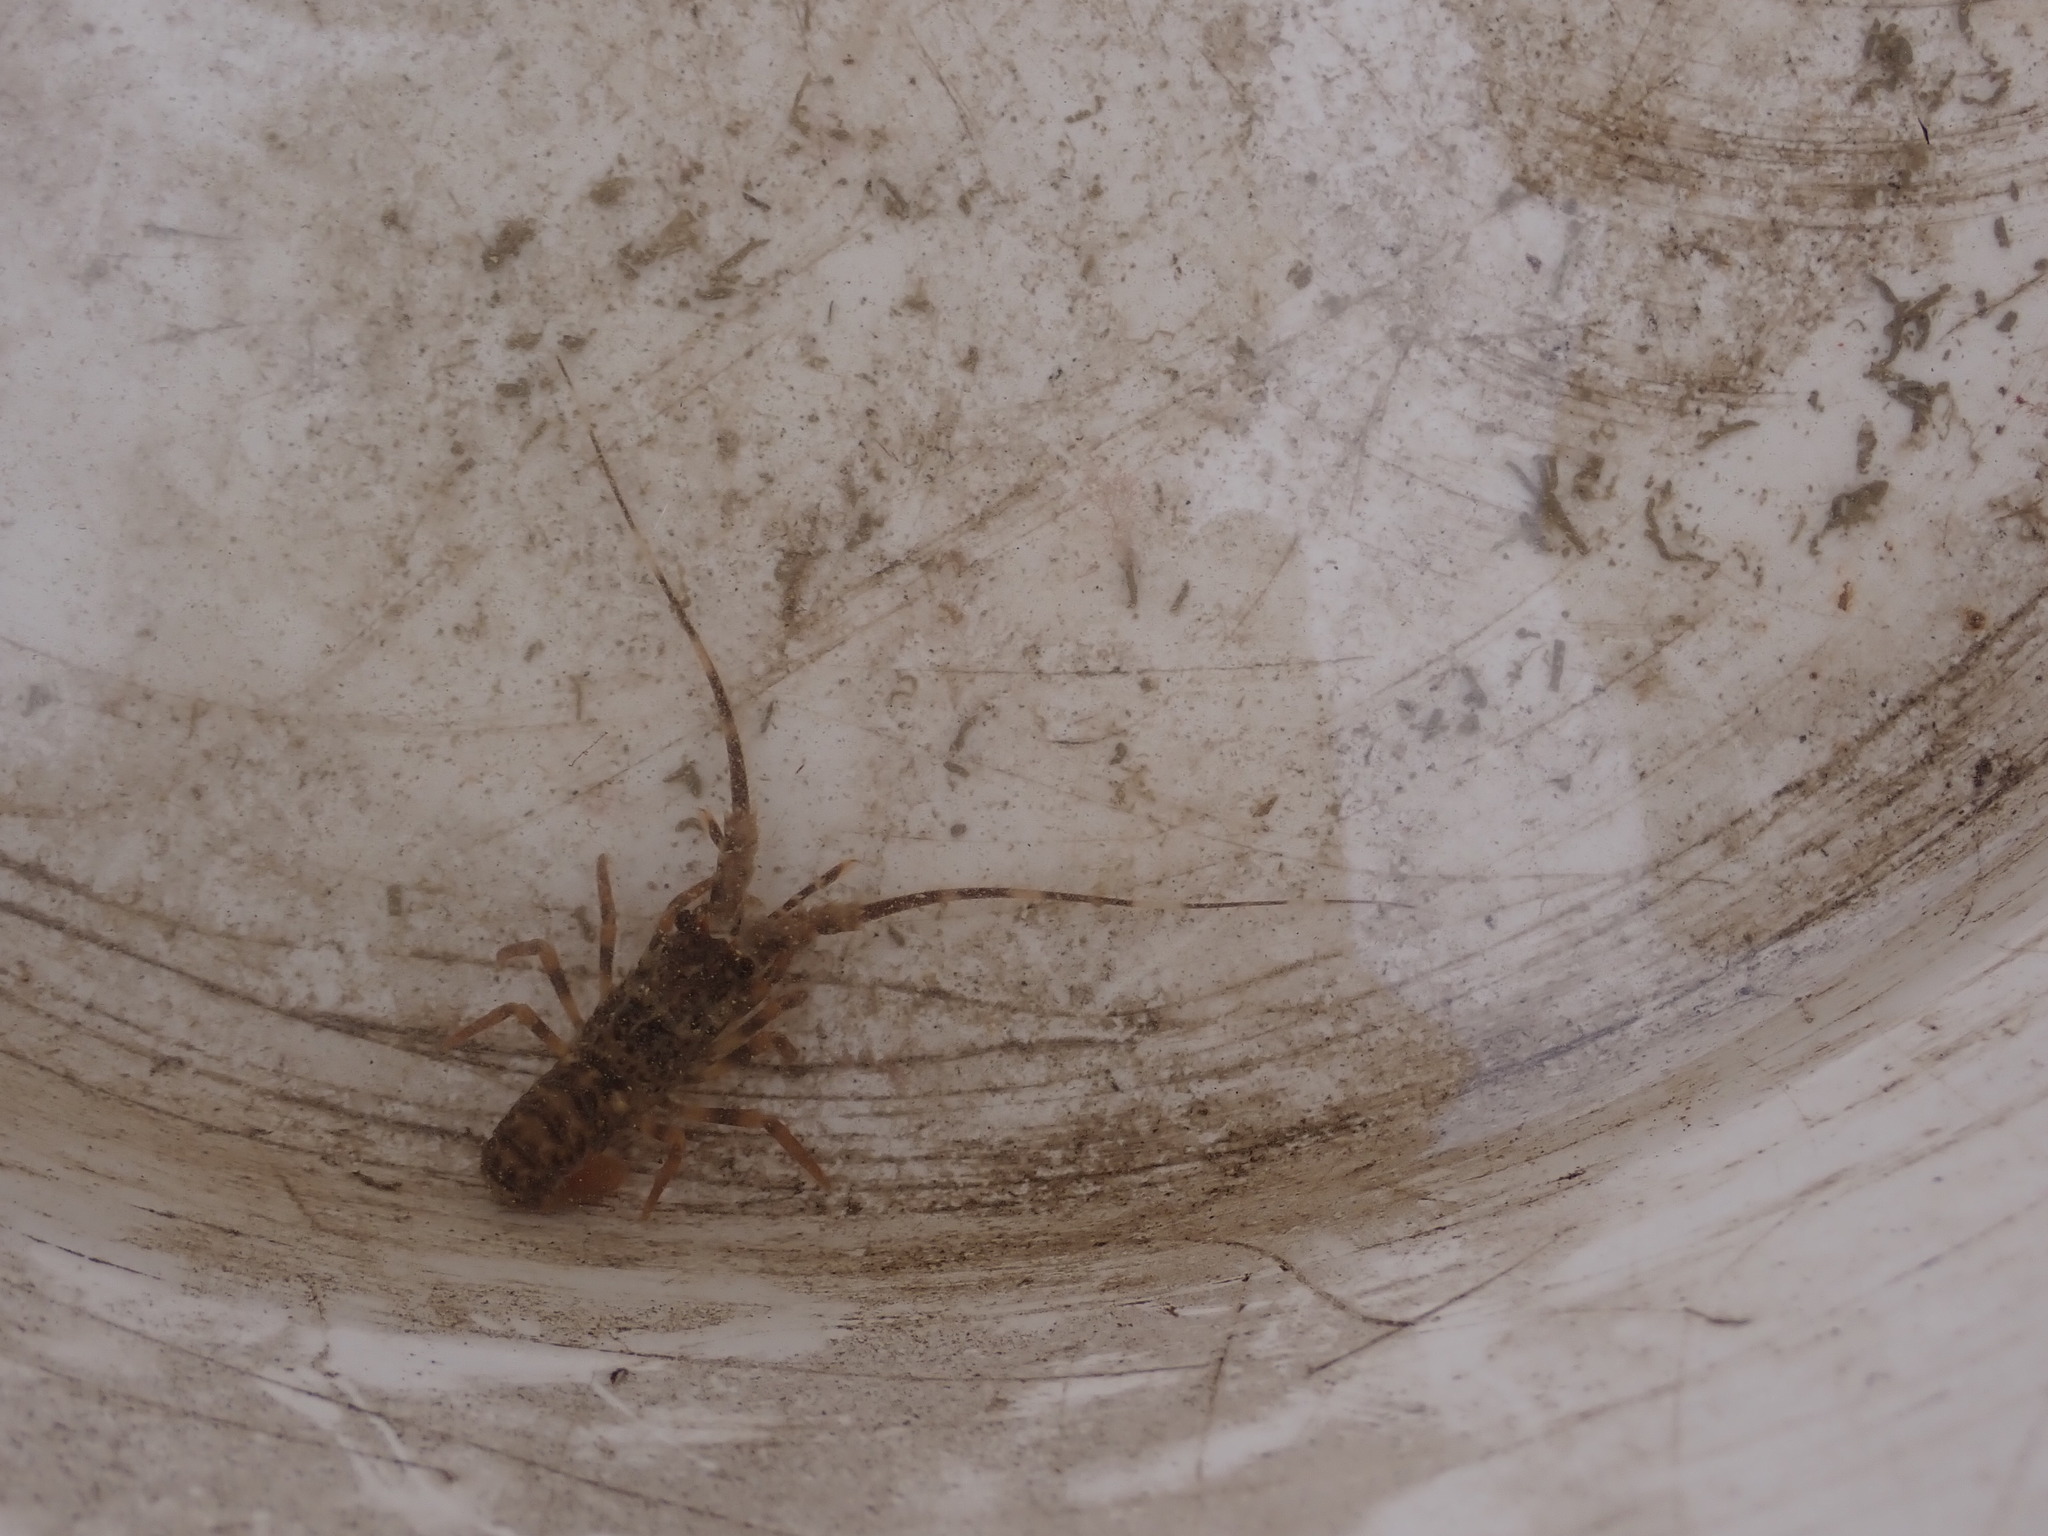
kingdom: Animalia
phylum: Arthropoda
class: Malacostraca
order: Decapoda
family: Palinuridae
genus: Jasus
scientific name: Jasus edwardsii
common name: Red rock lobster
